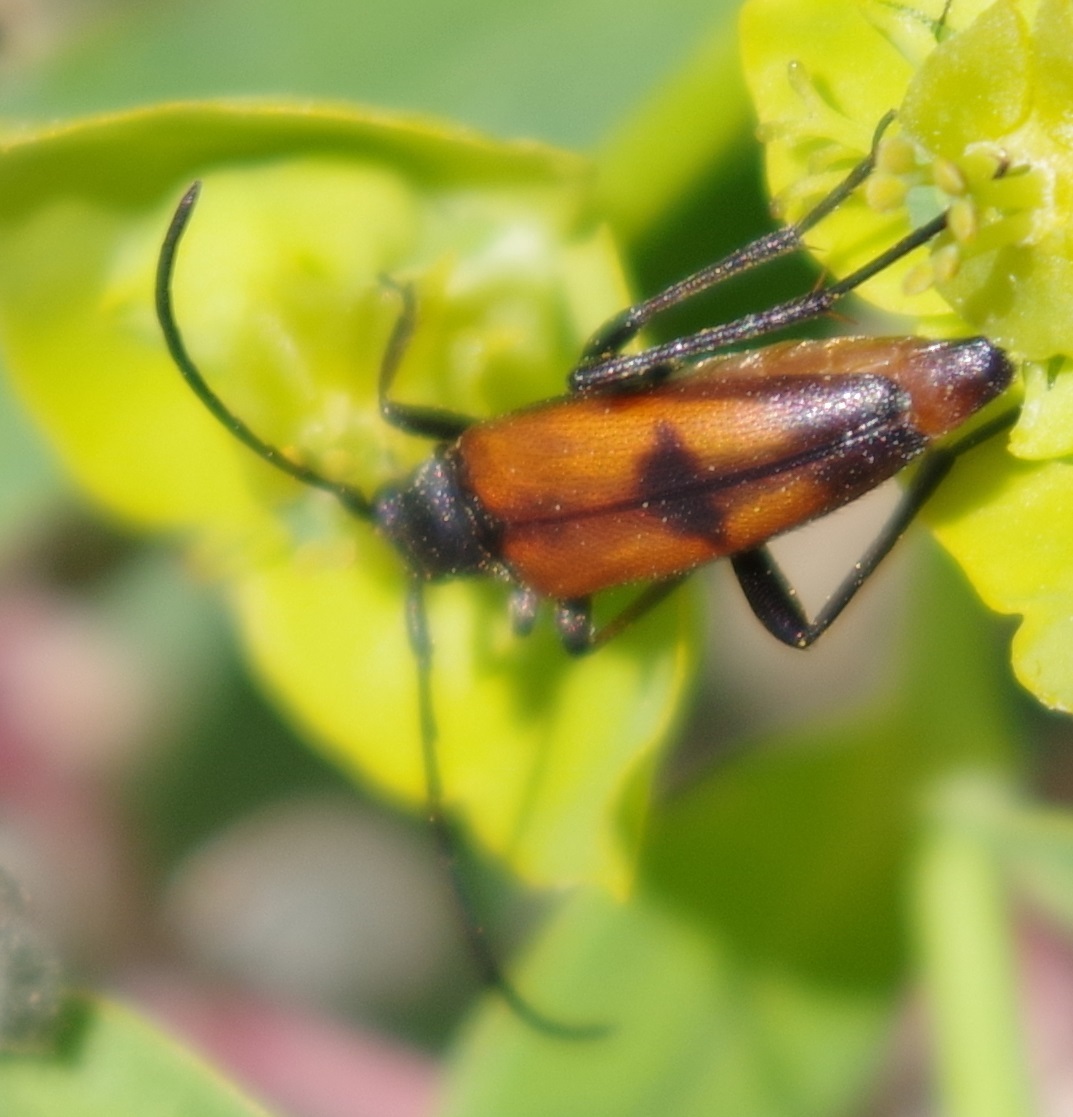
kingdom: Animalia
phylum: Arthropoda
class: Insecta
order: Coleoptera
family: Cerambycidae
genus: Stenurella
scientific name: Stenurella bifasciata
